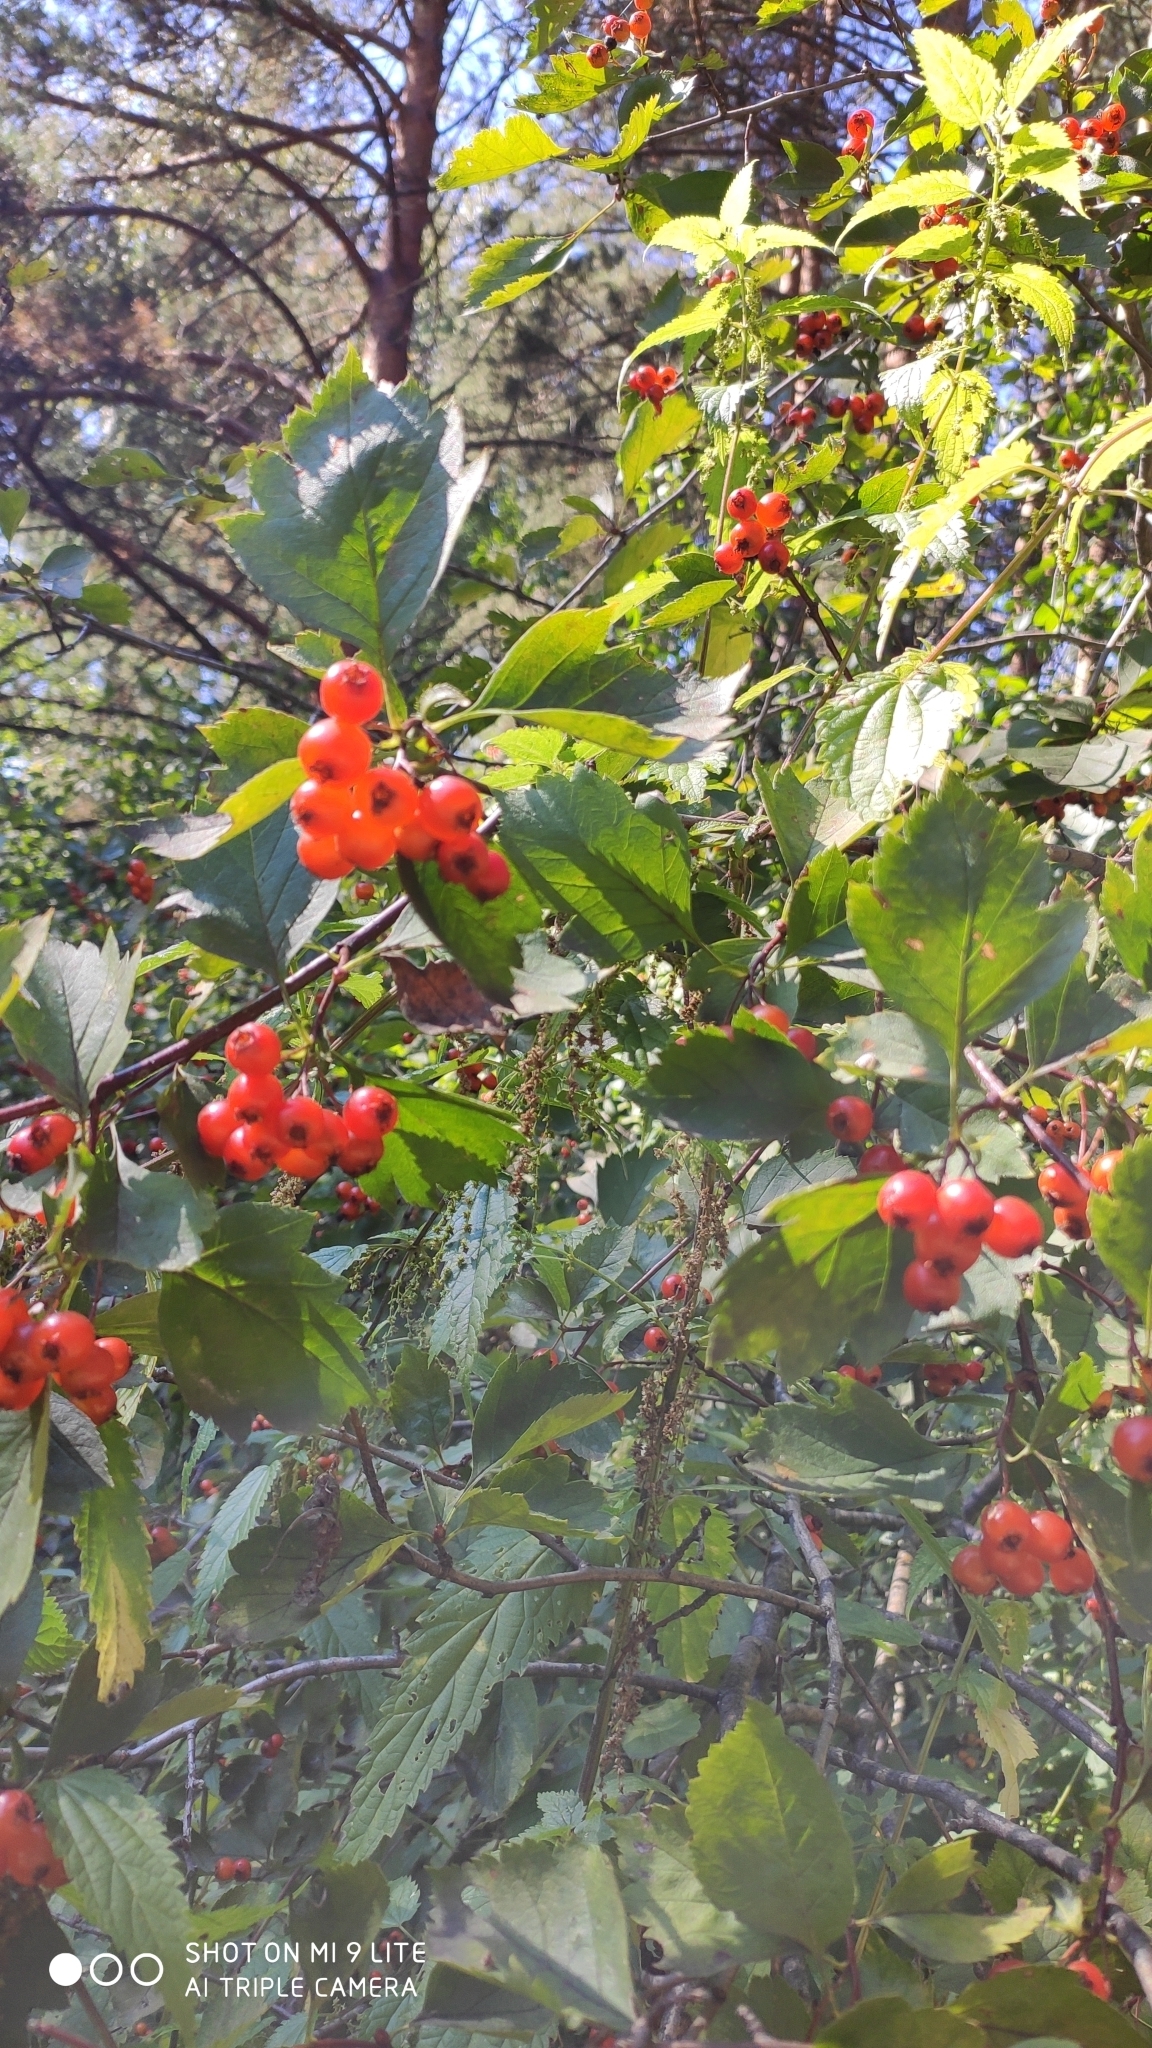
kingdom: Plantae
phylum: Tracheophyta
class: Magnoliopsida
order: Rosales
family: Rosaceae
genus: Crataegus
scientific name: Crataegus sanguinea
